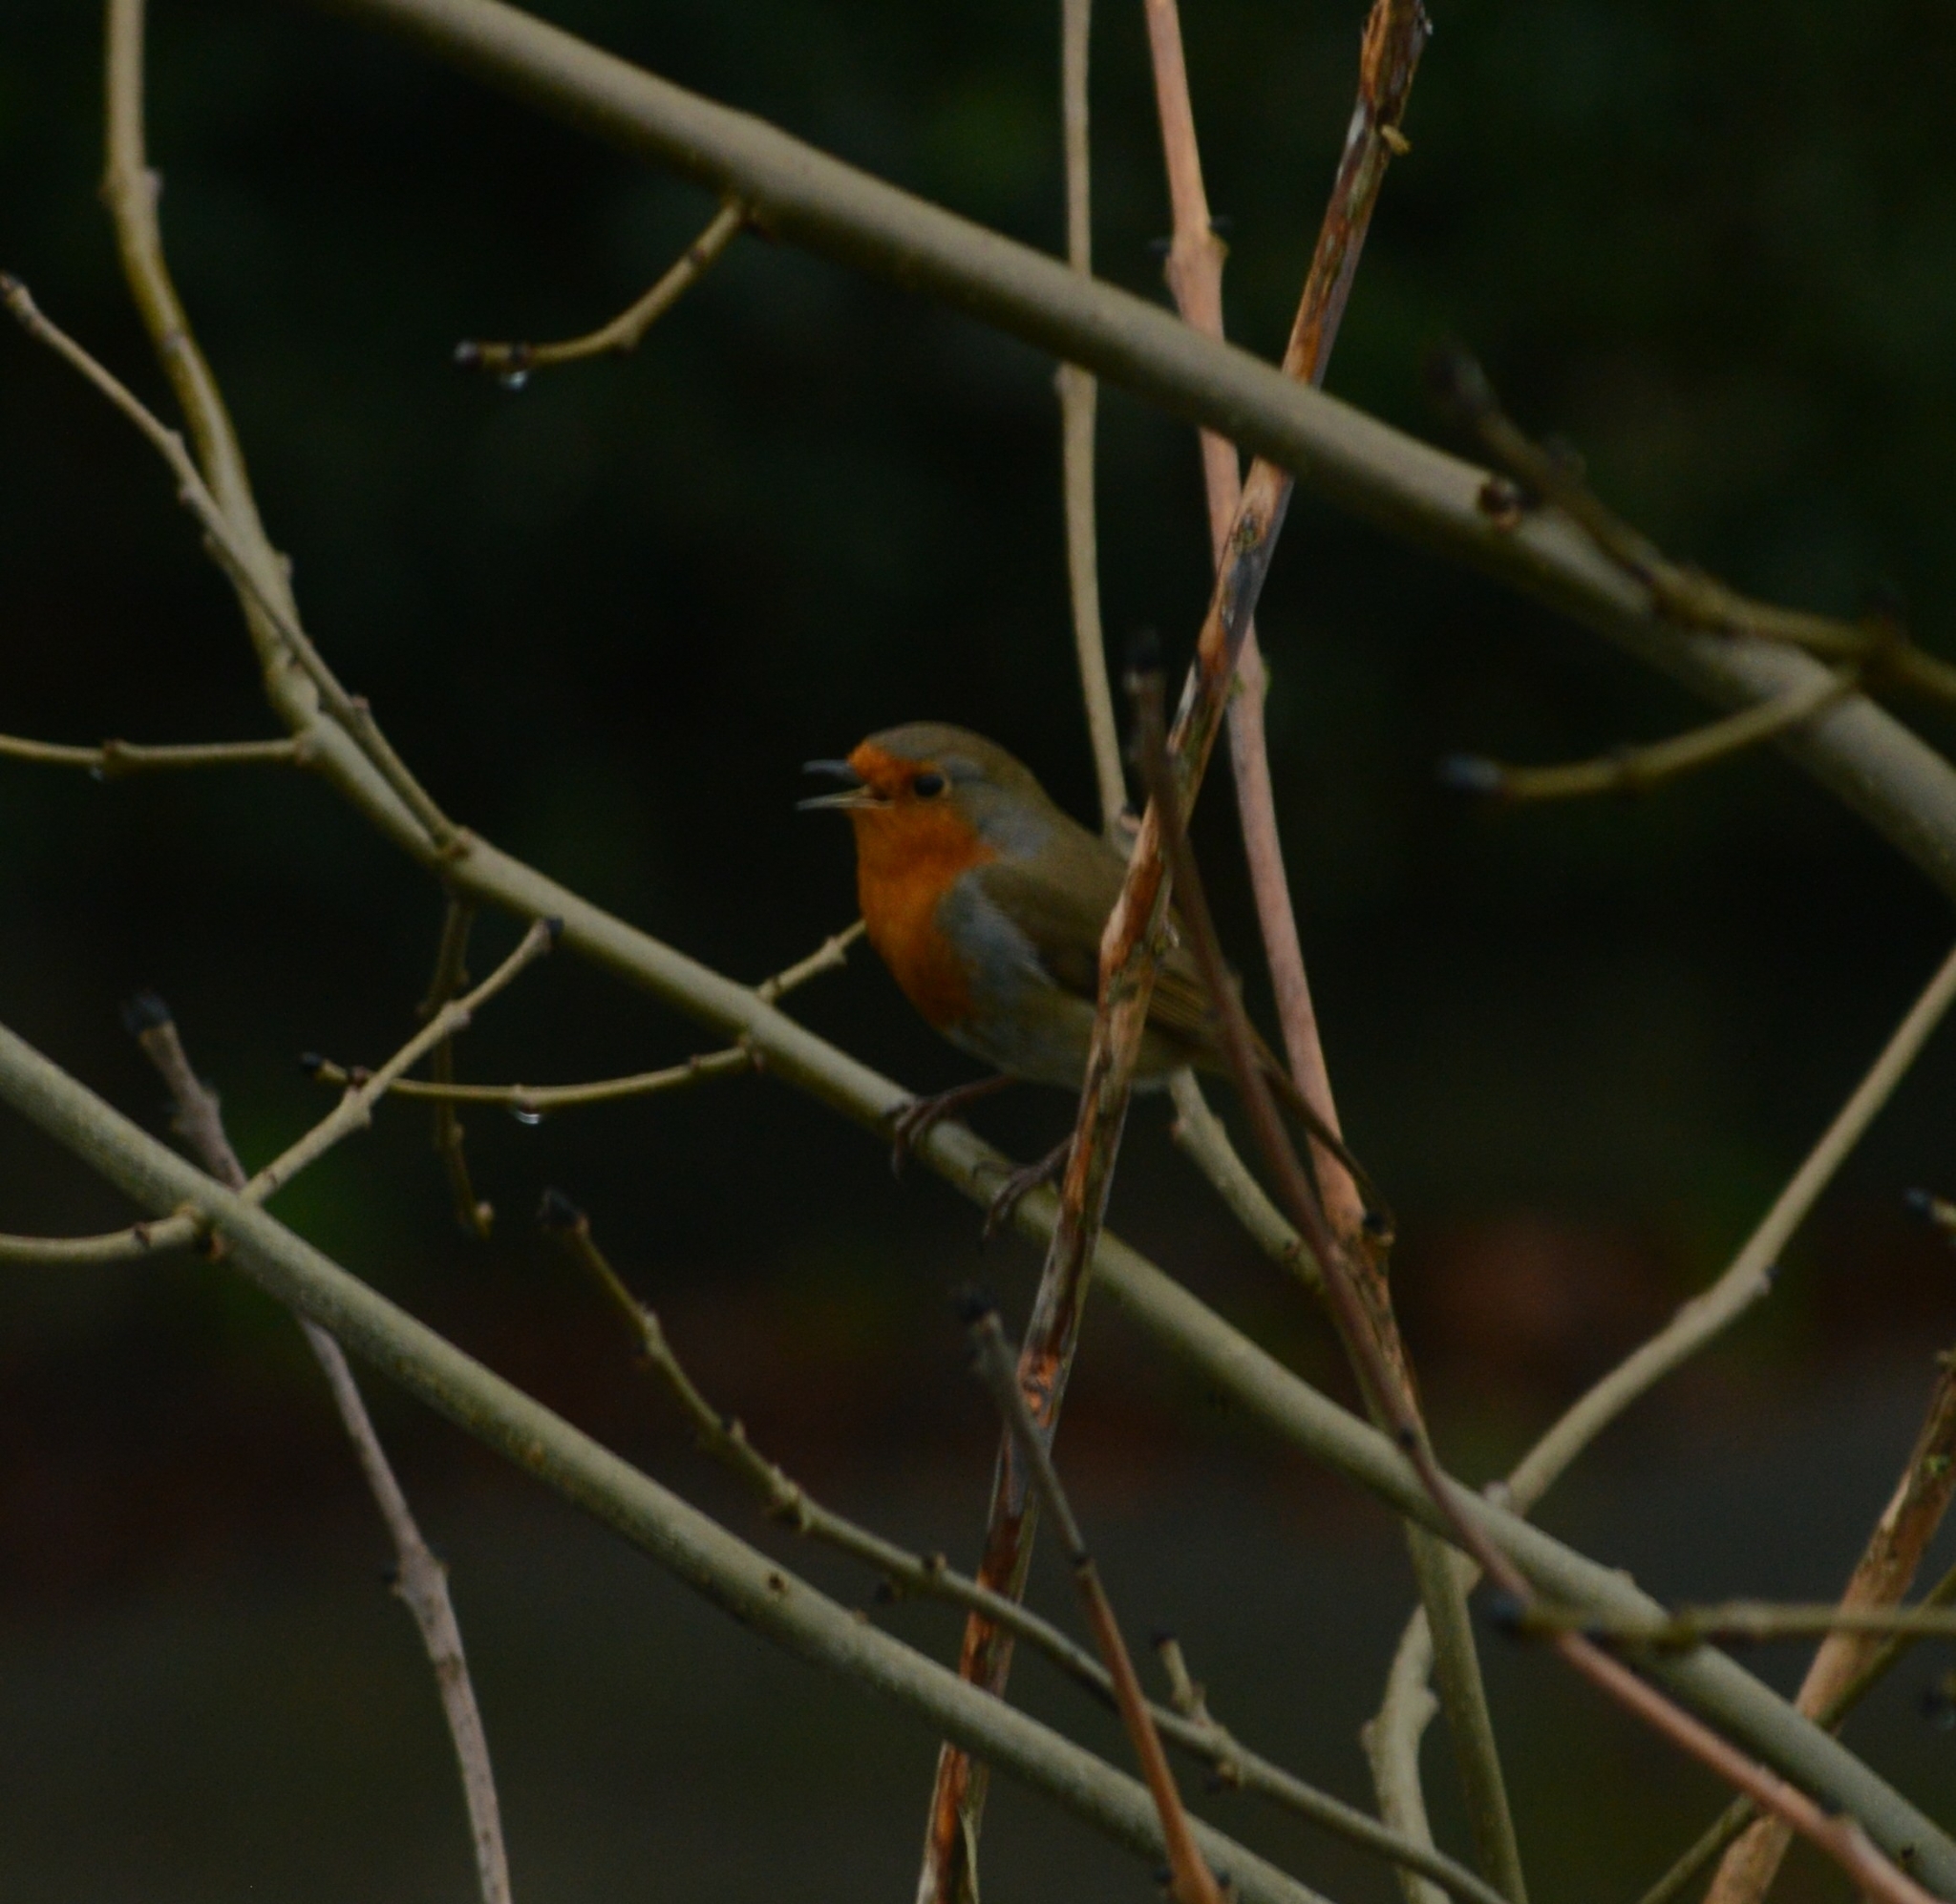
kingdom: Animalia
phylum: Chordata
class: Aves
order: Passeriformes
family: Muscicapidae
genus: Erithacus
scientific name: Erithacus rubecula
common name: European robin
